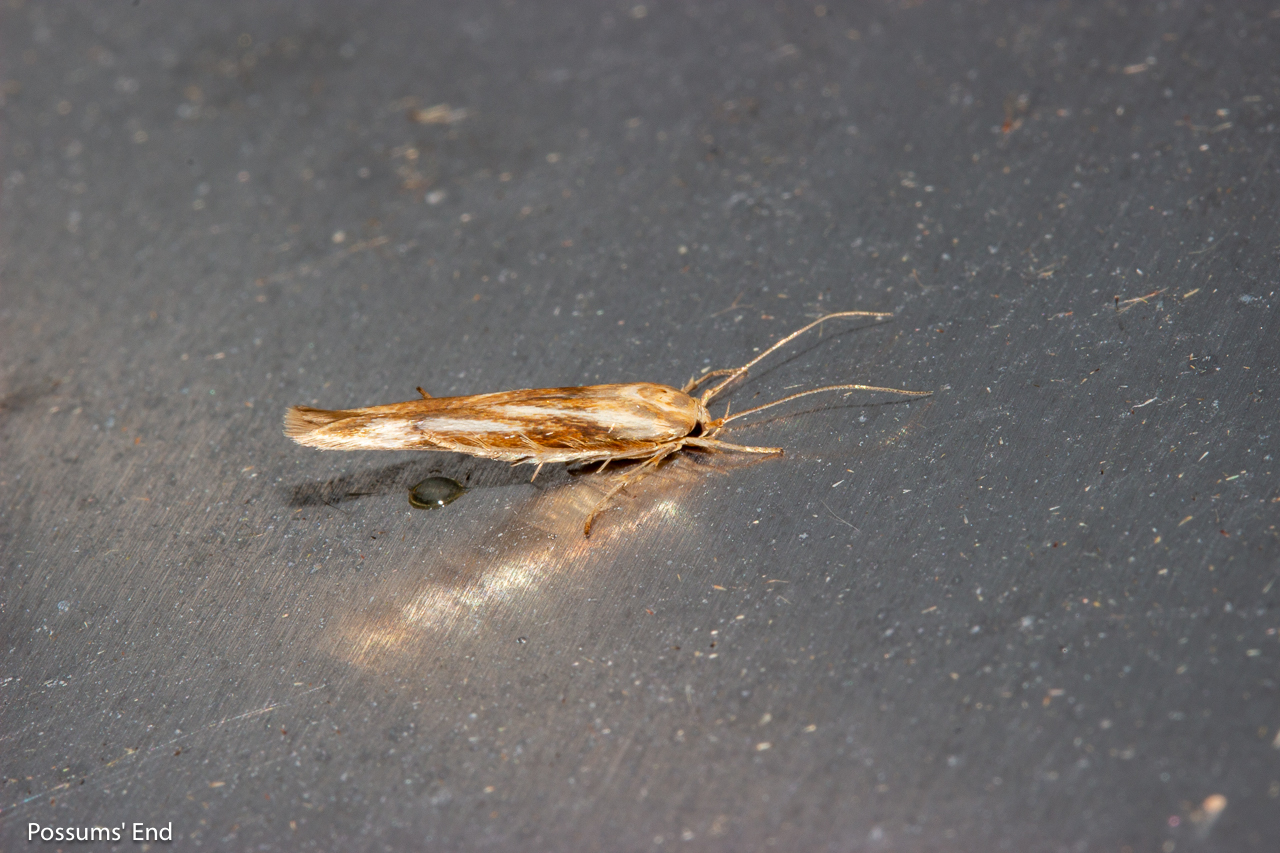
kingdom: Animalia
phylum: Arthropoda
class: Insecta
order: Lepidoptera
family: Stathmopodidae
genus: Stathmopoda
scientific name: Stathmopoda aposema
